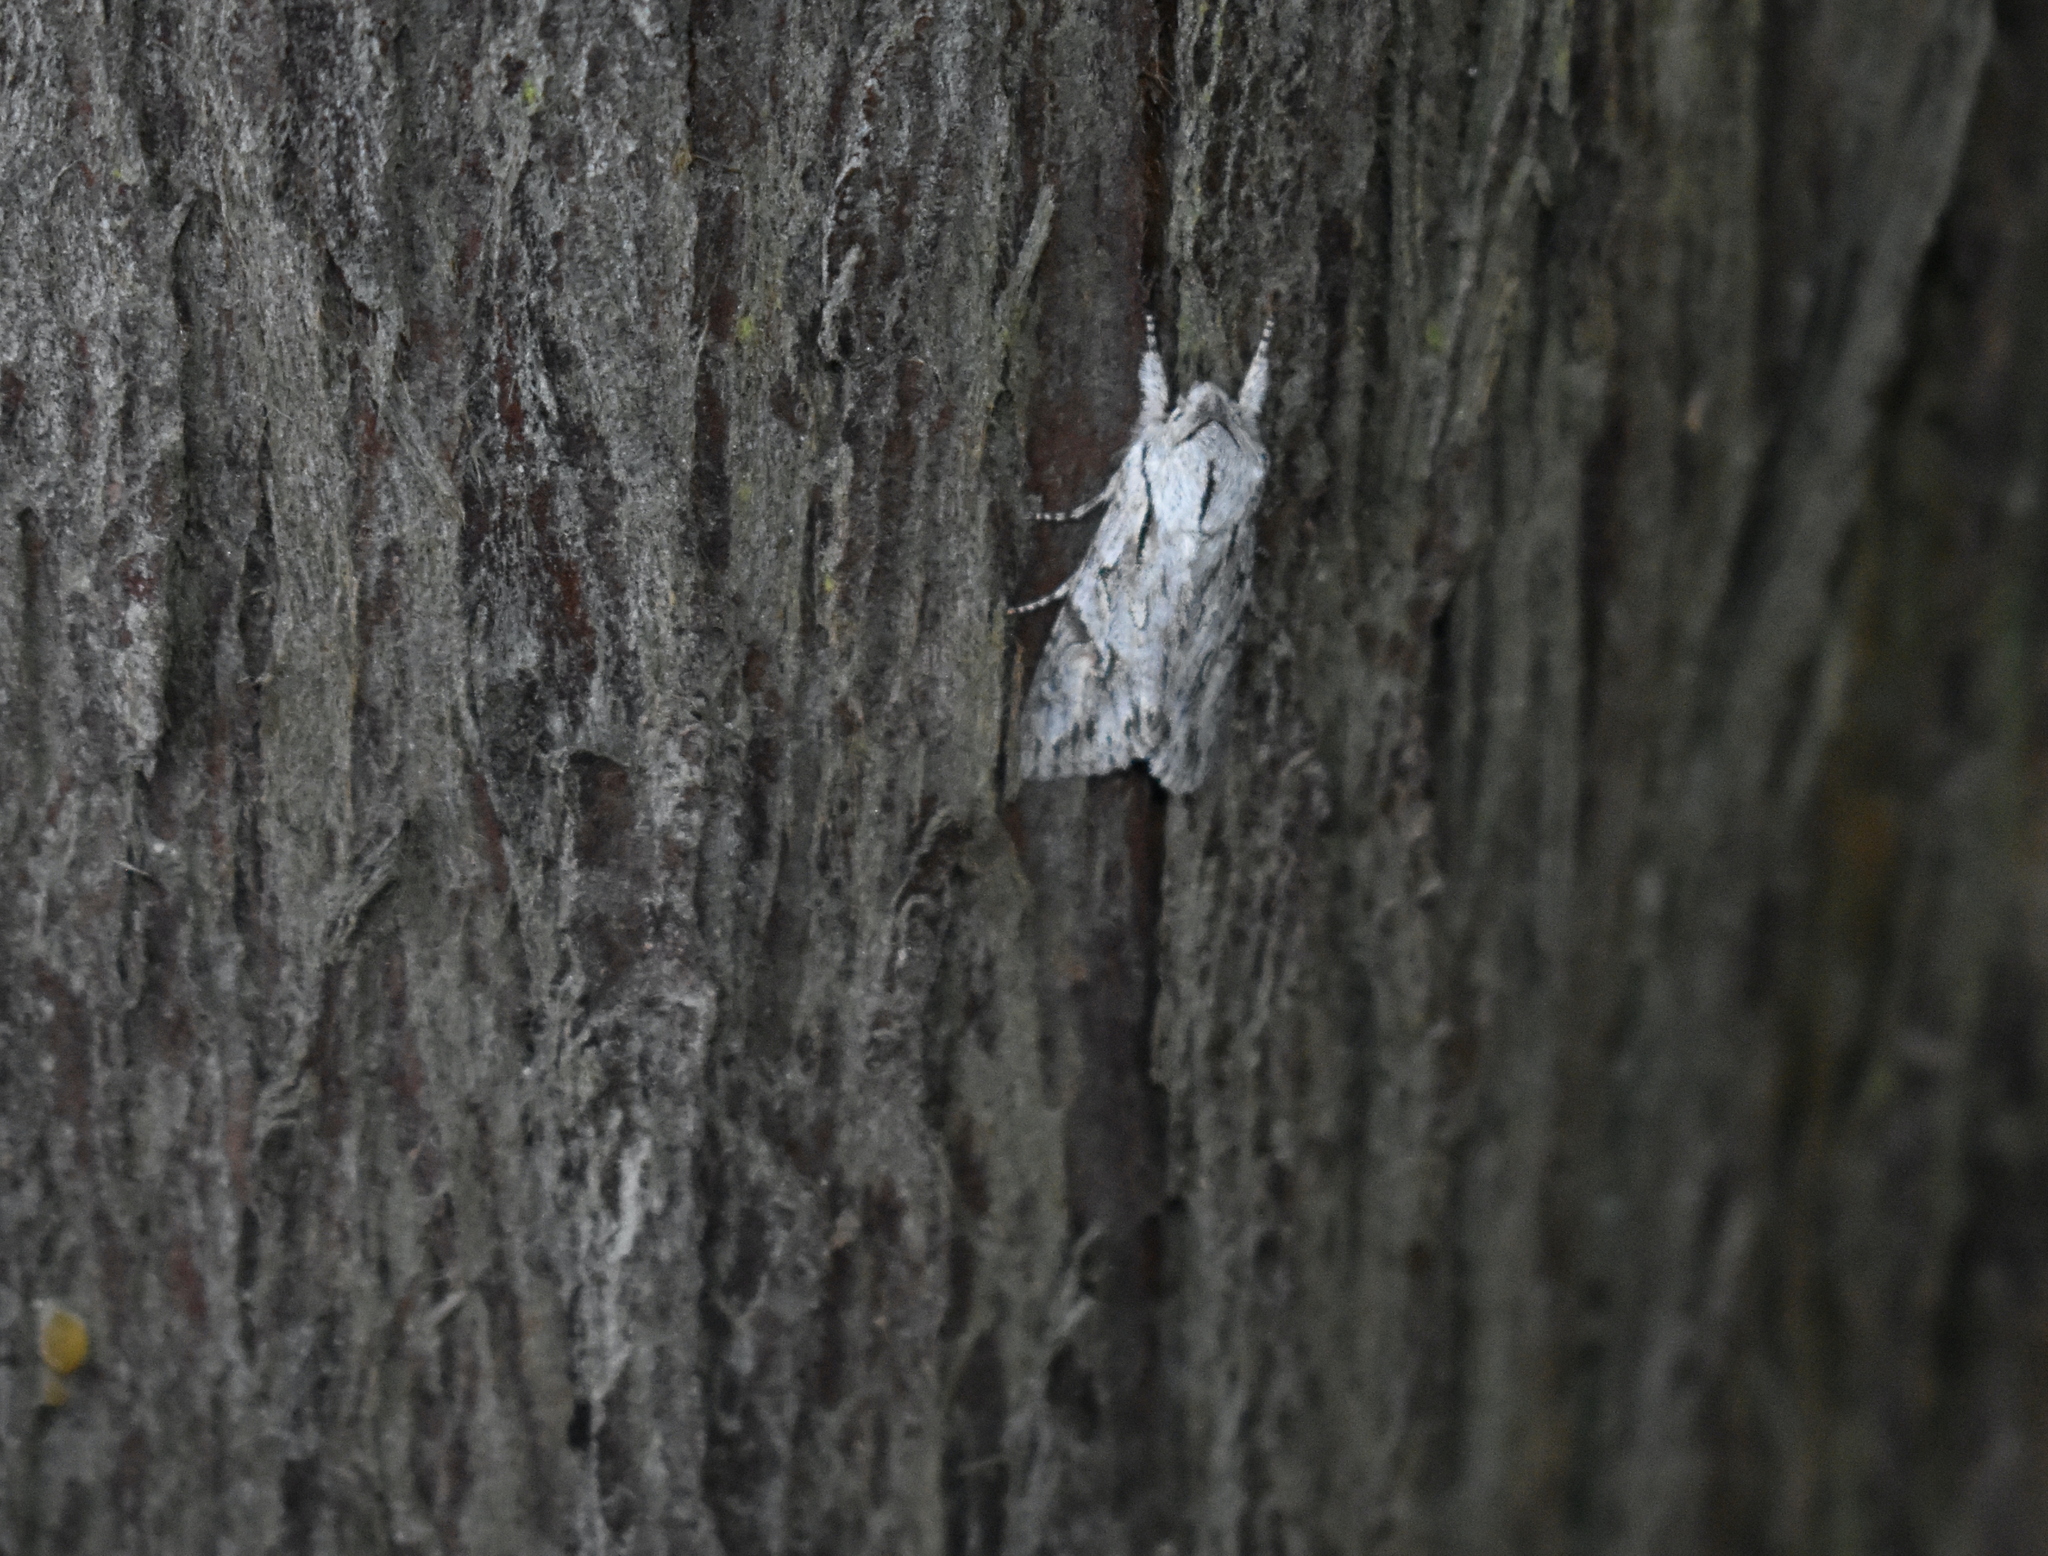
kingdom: Animalia
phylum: Arthropoda
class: Insecta
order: Lepidoptera
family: Noctuidae
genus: Egira
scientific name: Egira crucialis
